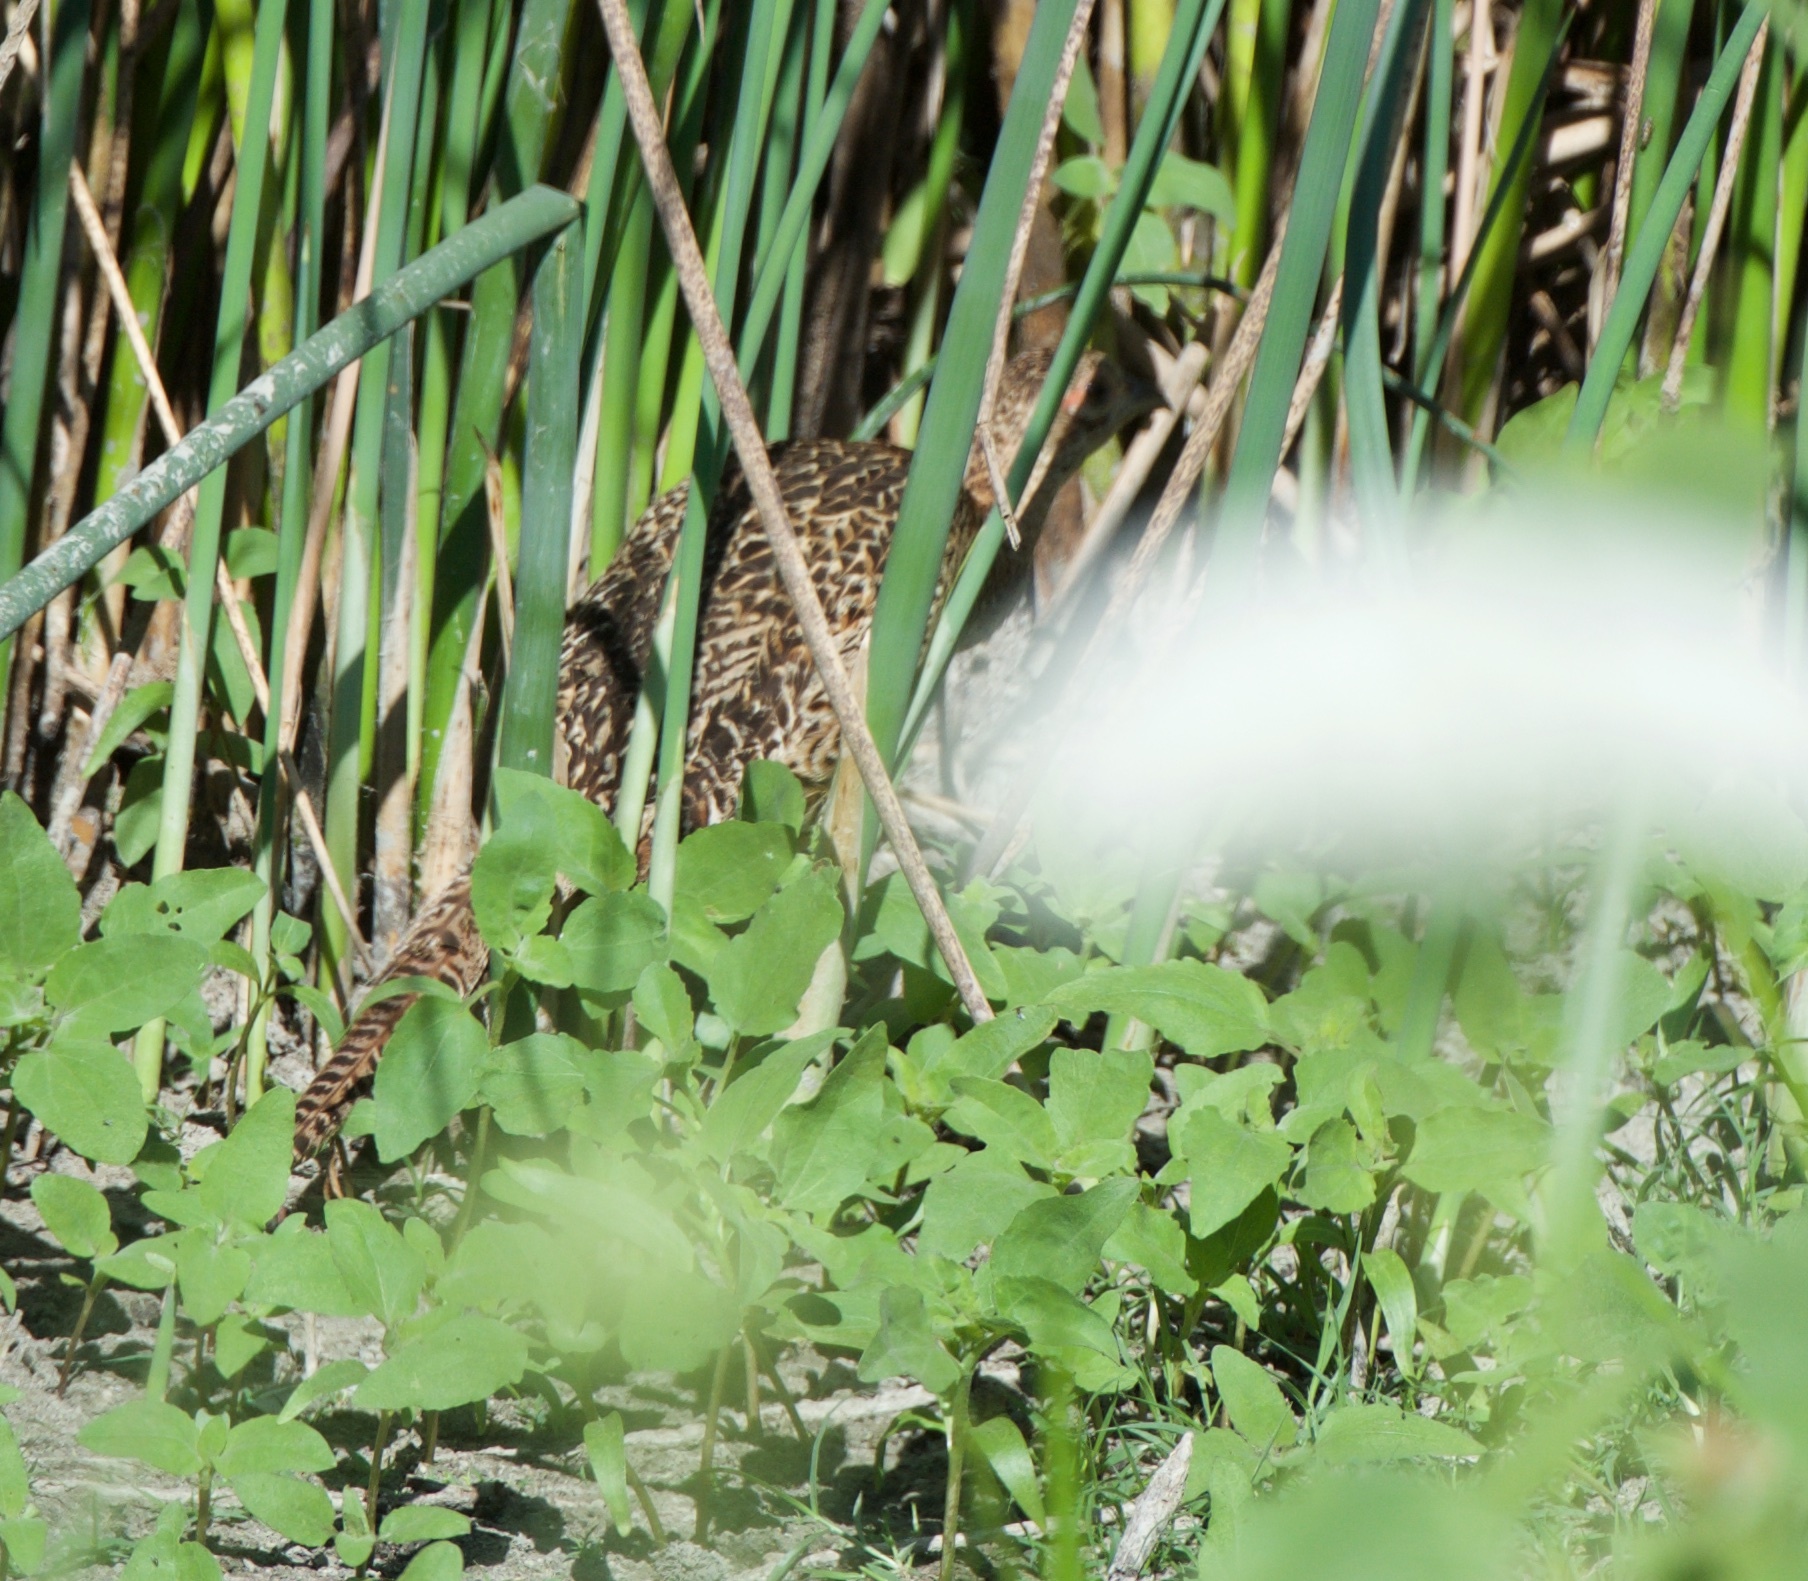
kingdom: Animalia
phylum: Chordata
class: Aves
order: Galliformes
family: Phasianidae
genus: Phasianus
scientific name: Phasianus colchicus
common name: Common pheasant
